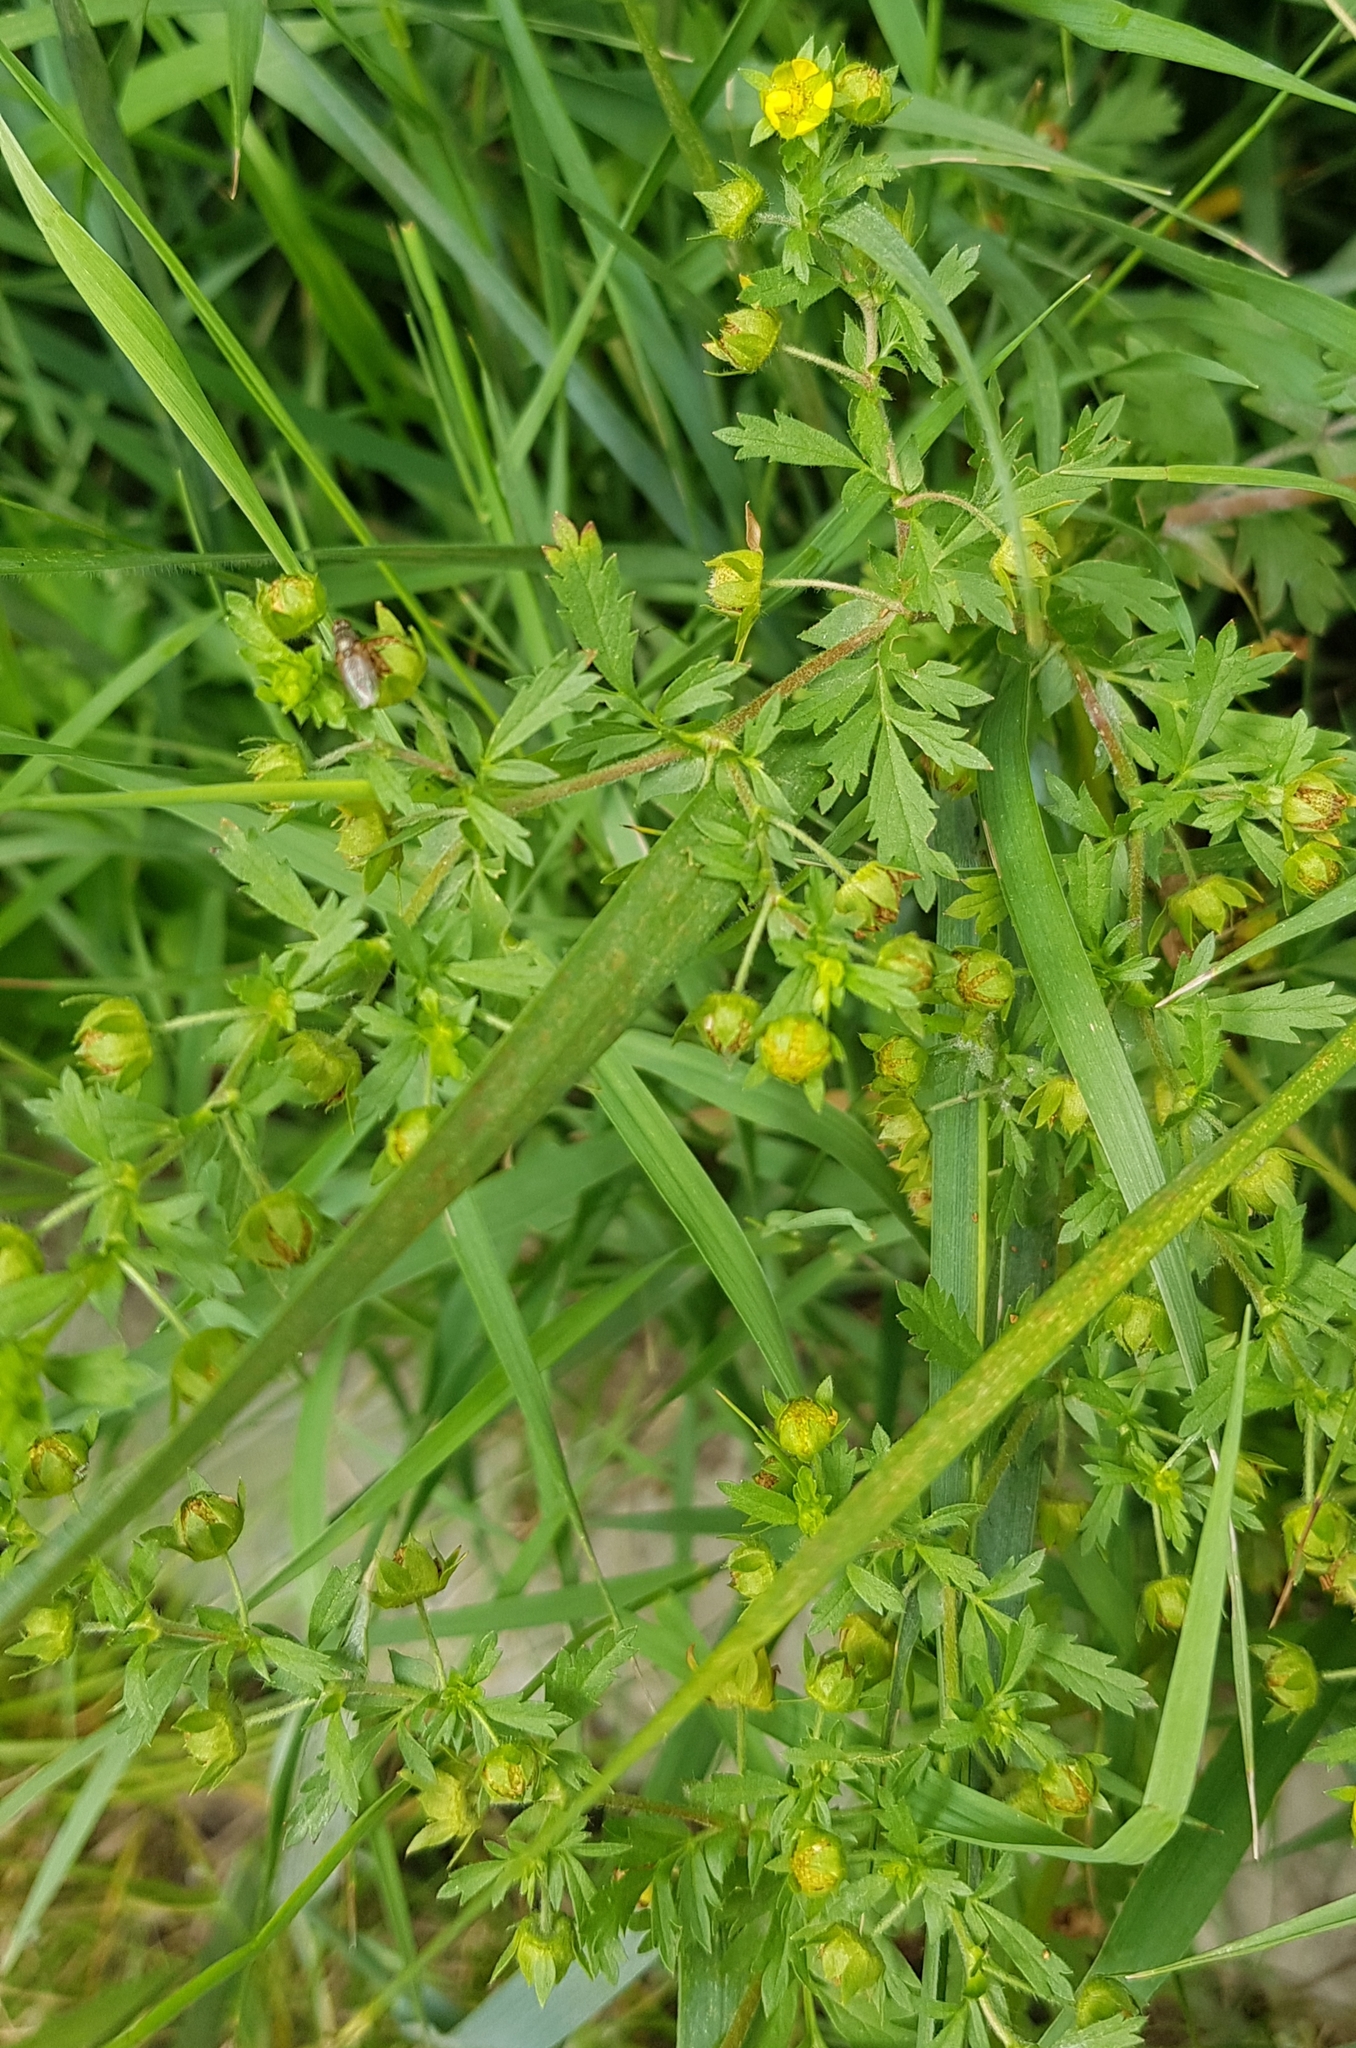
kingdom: Plantae
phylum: Tracheophyta
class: Magnoliopsida
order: Rosales
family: Rosaceae
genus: Potentilla
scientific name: Potentilla supina
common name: Prostrate cinquefoil
